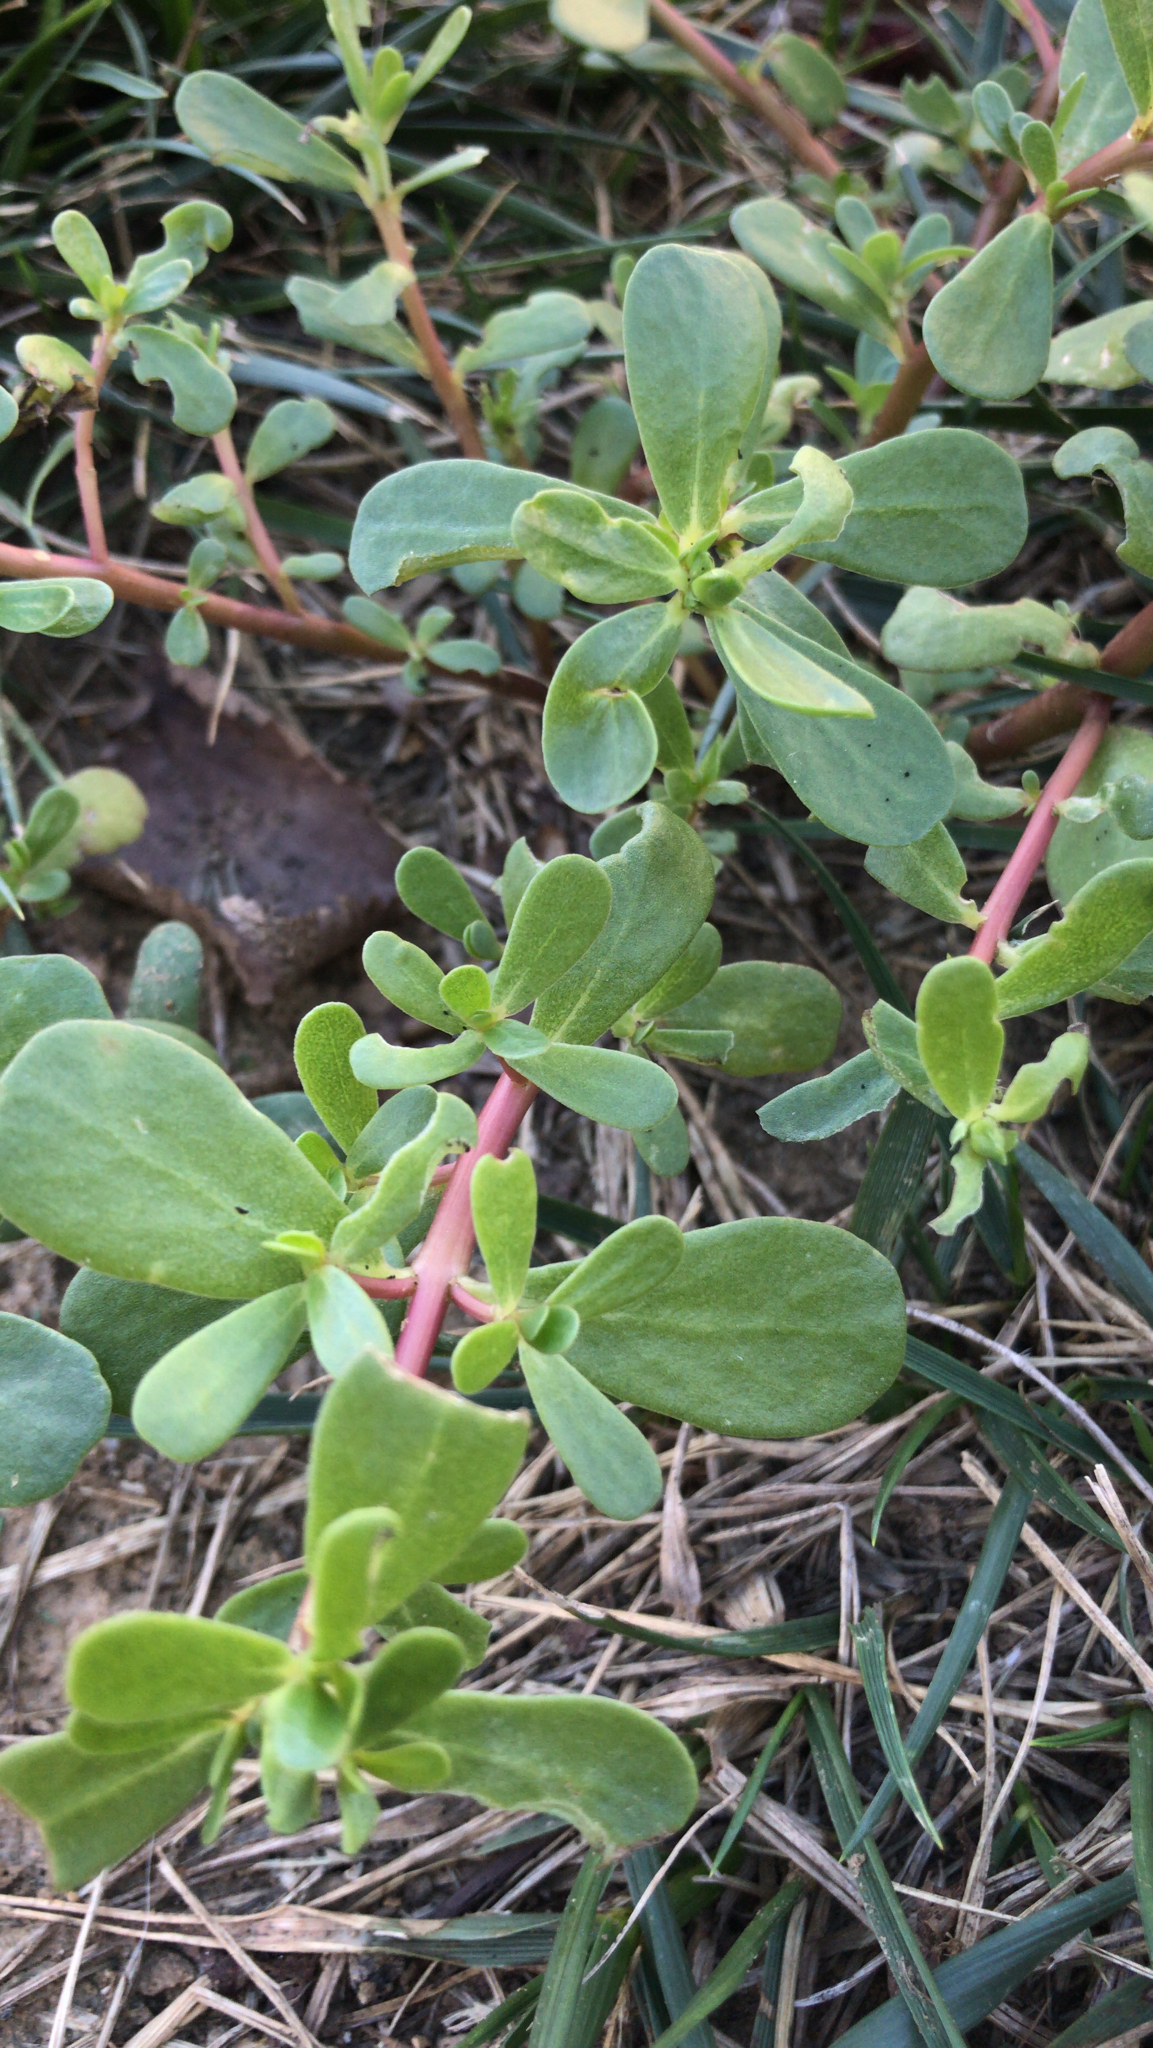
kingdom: Plantae
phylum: Tracheophyta
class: Magnoliopsida
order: Caryophyllales
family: Portulacaceae
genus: Portulaca
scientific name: Portulaca oleracea
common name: Common purslane
